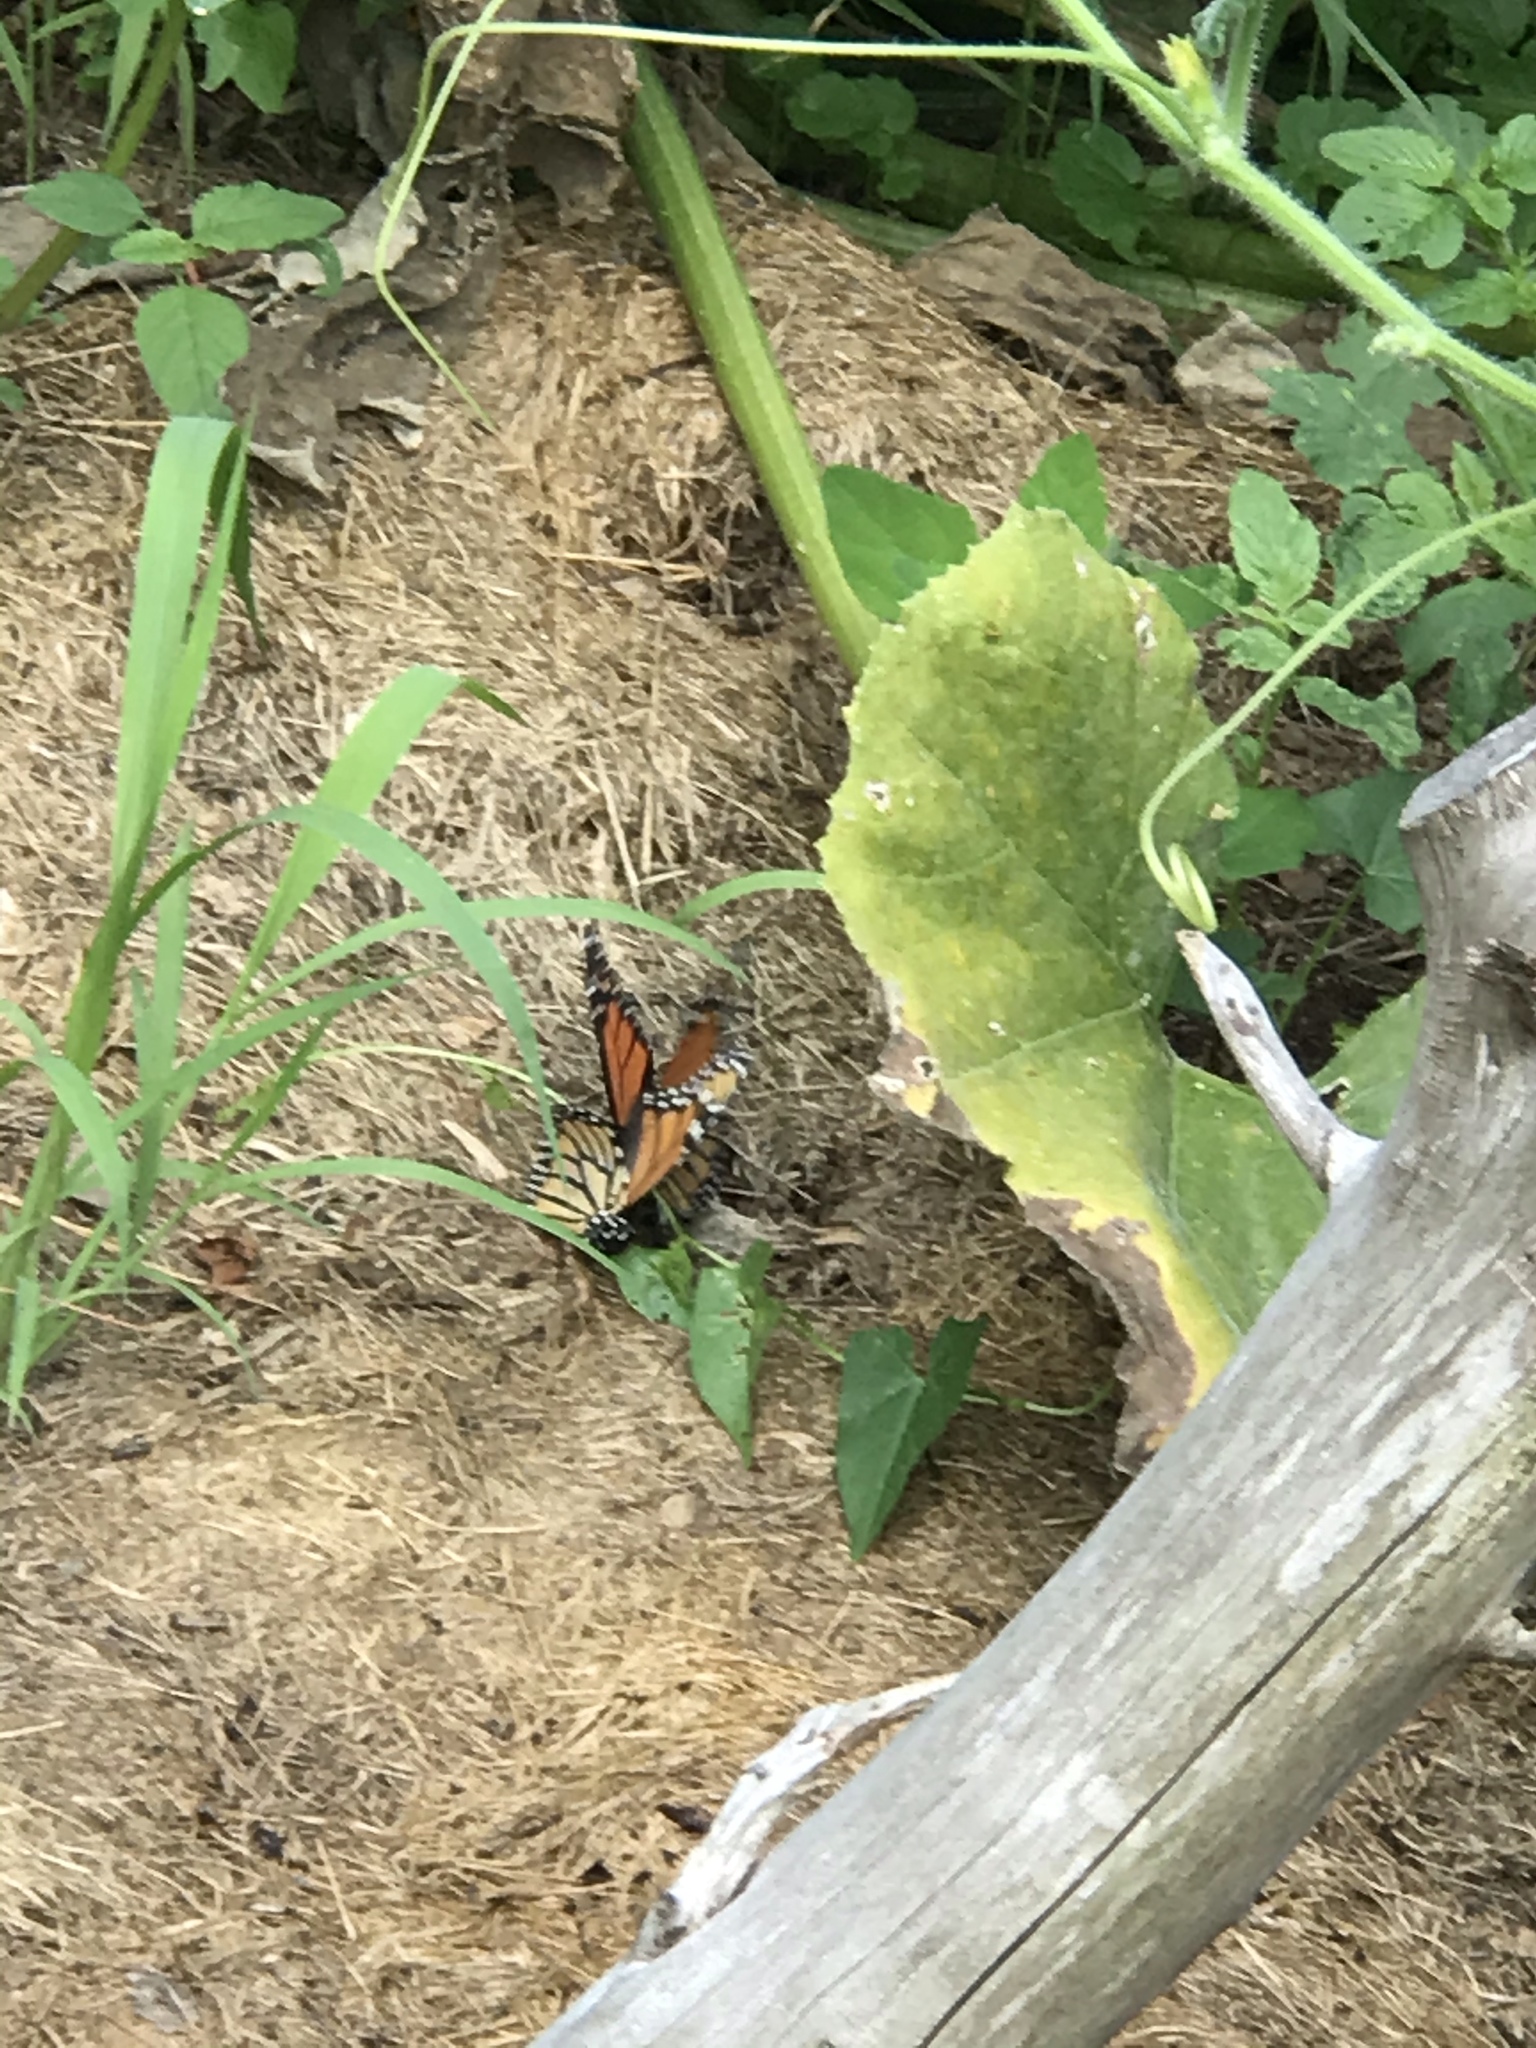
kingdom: Animalia
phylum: Arthropoda
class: Insecta
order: Lepidoptera
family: Nymphalidae
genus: Danaus
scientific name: Danaus plexippus
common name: Monarch
